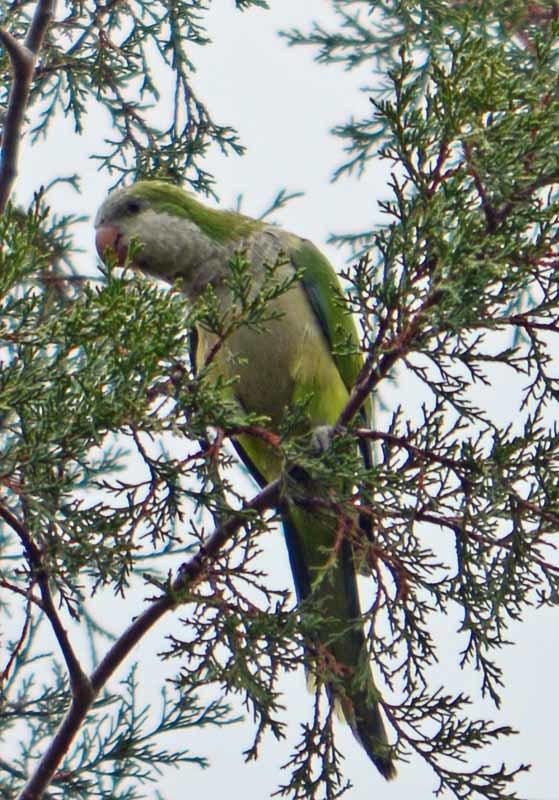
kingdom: Animalia
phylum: Chordata
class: Aves
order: Psittaciformes
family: Psittacidae
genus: Myiopsitta
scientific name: Myiopsitta monachus
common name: Monk parakeet
